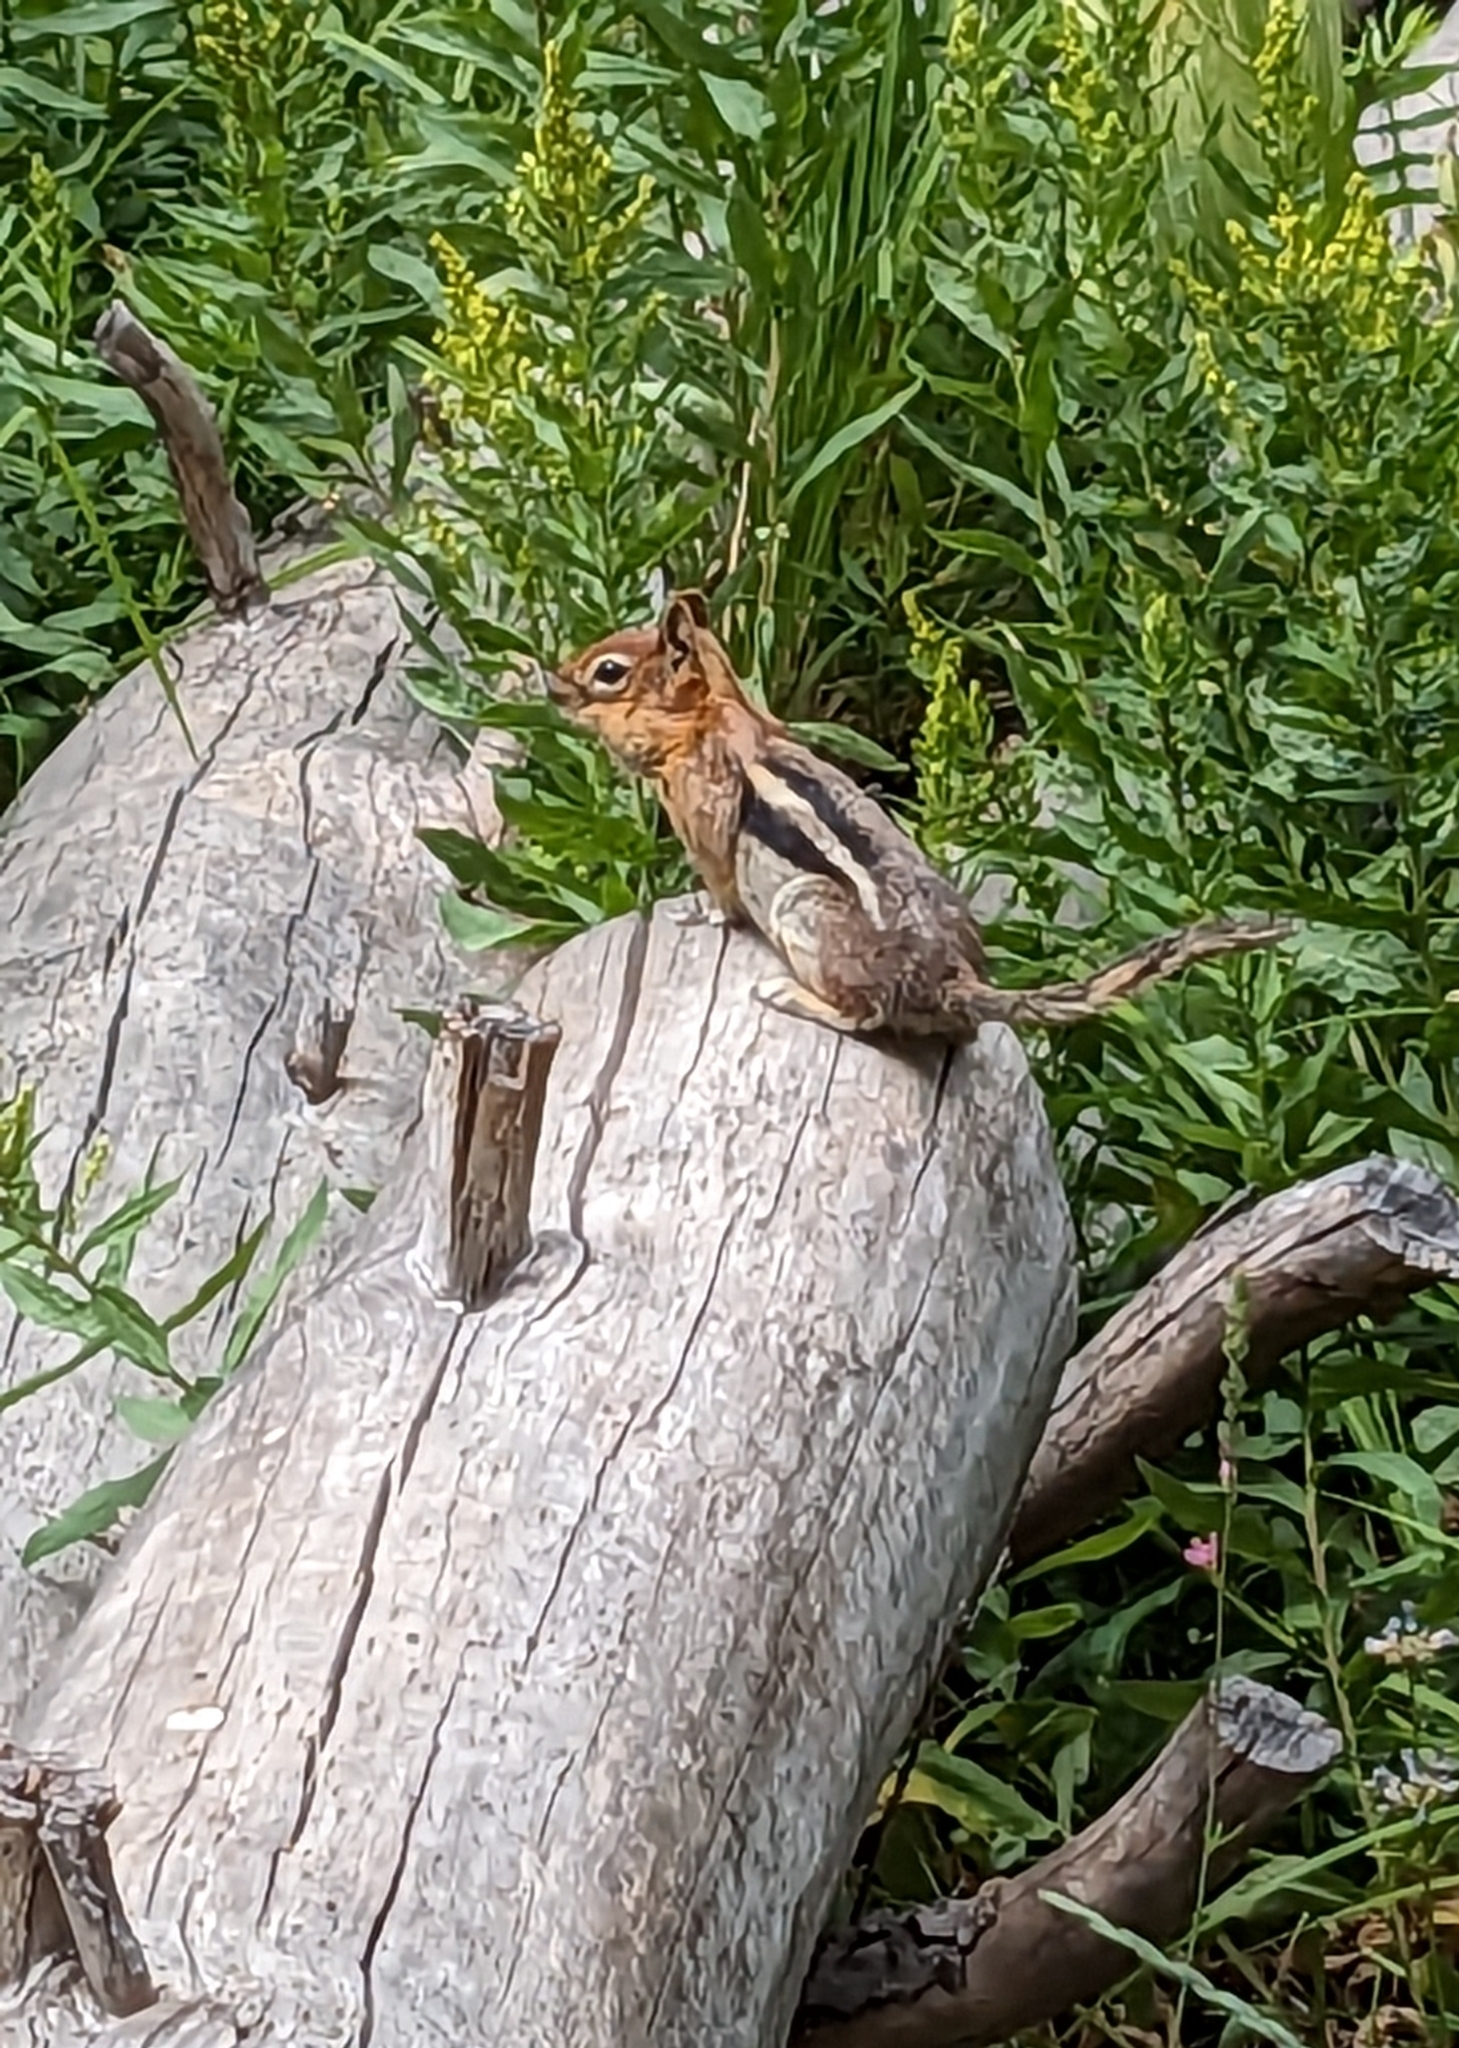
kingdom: Animalia
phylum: Chordata
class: Mammalia
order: Rodentia
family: Sciuridae
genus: Callospermophilus
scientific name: Callospermophilus lateralis
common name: Golden-mantled ground squirrel
